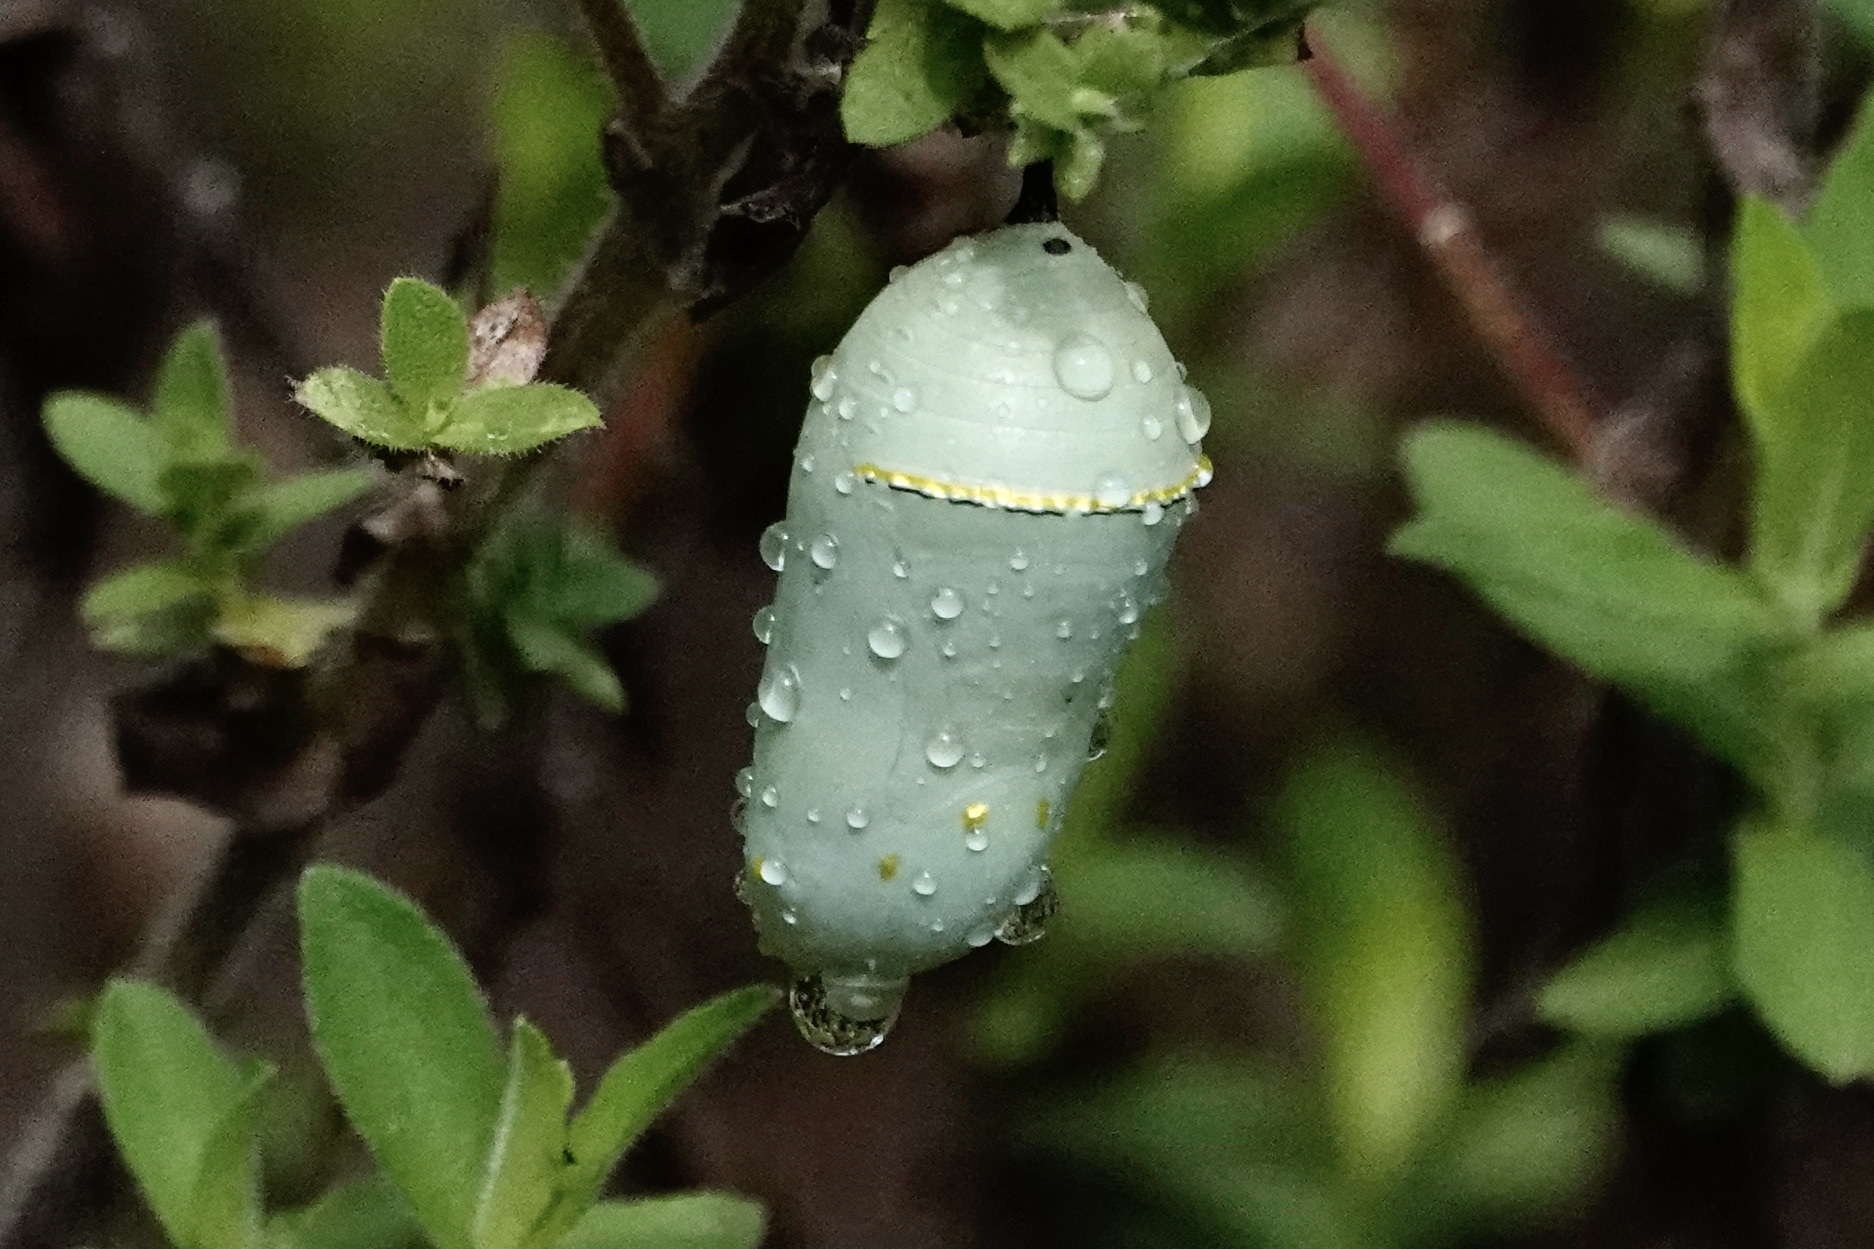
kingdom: Animalia
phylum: Arthropoda
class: Insecta
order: Lepidoptera
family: Nymphalidae
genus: Danaus
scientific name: Danaus plexippus
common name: Monarch
